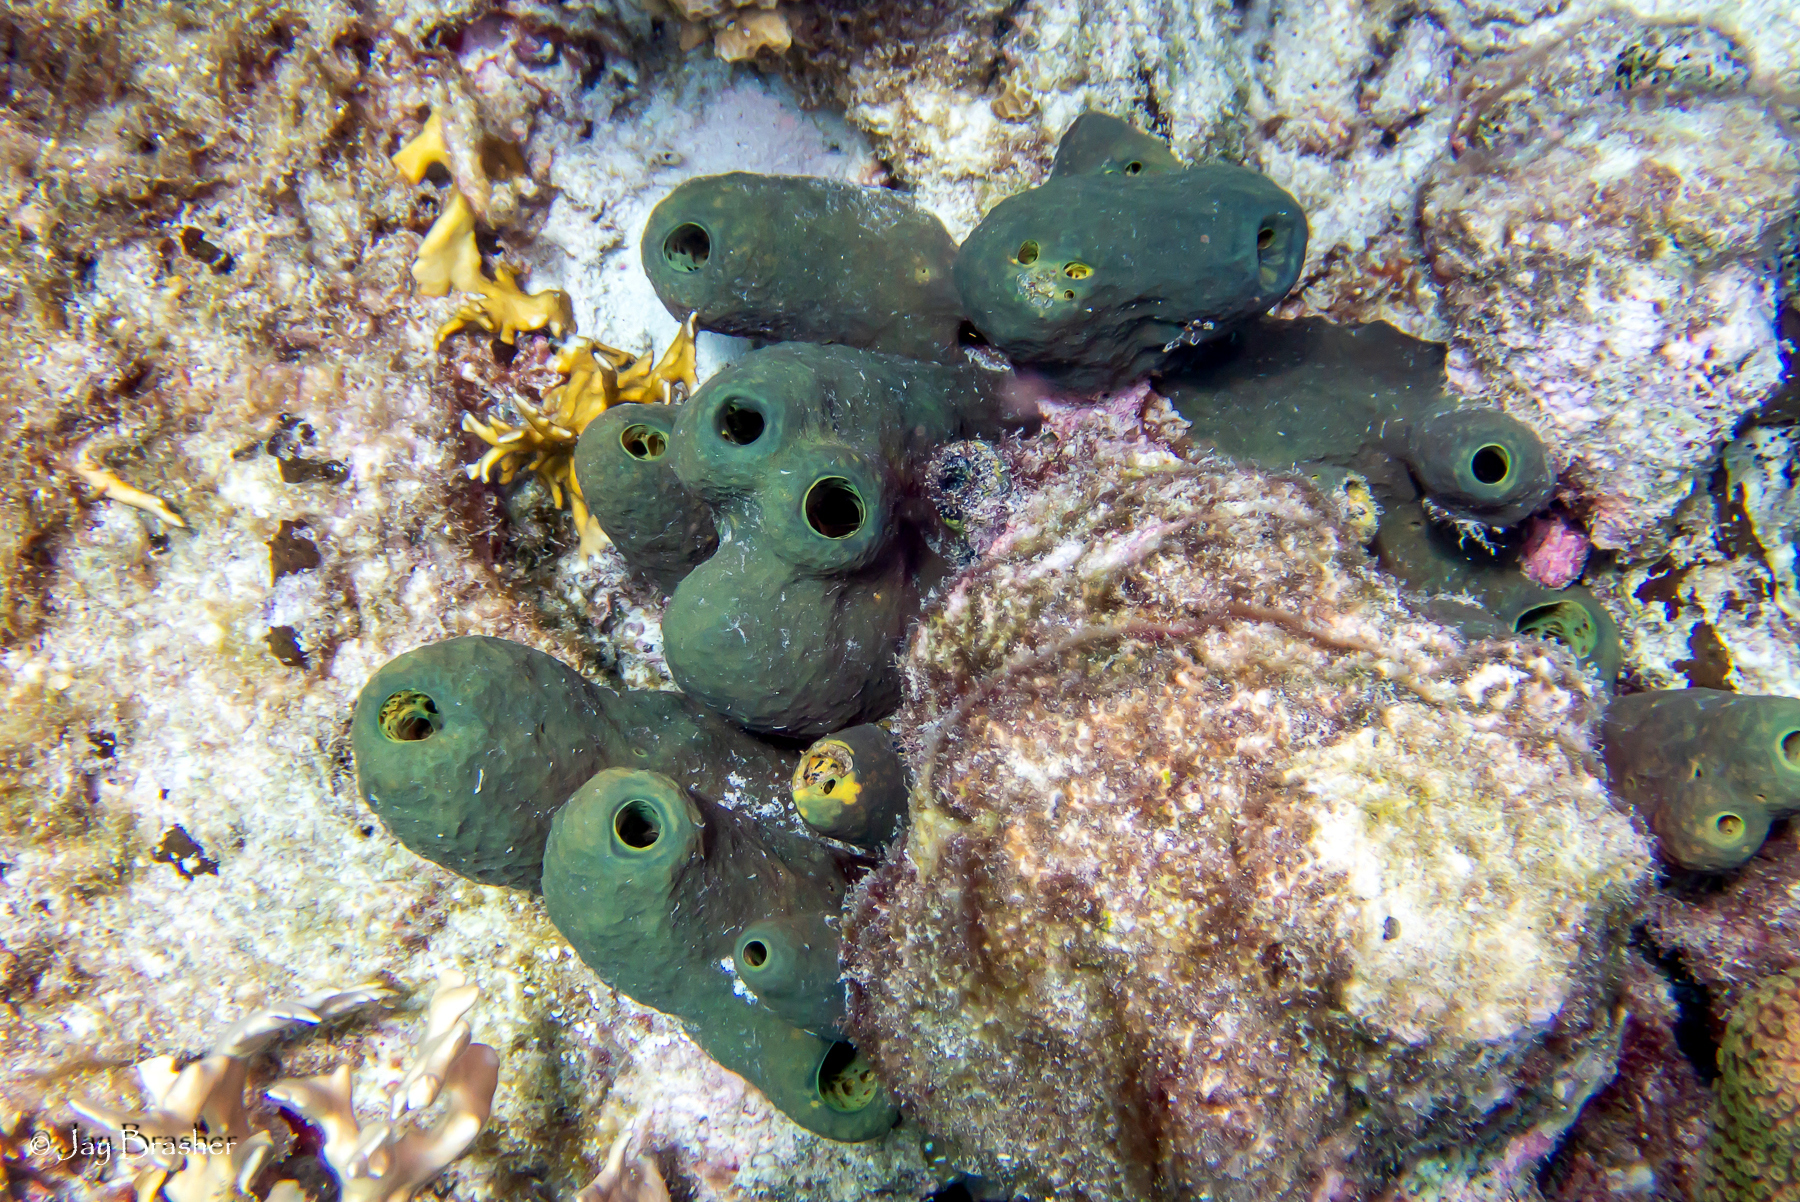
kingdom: Animalia
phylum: Porifera
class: Demospongiae
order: Verongiida
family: Aplysinidae
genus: Verongula
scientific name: Verongula reiswigi
